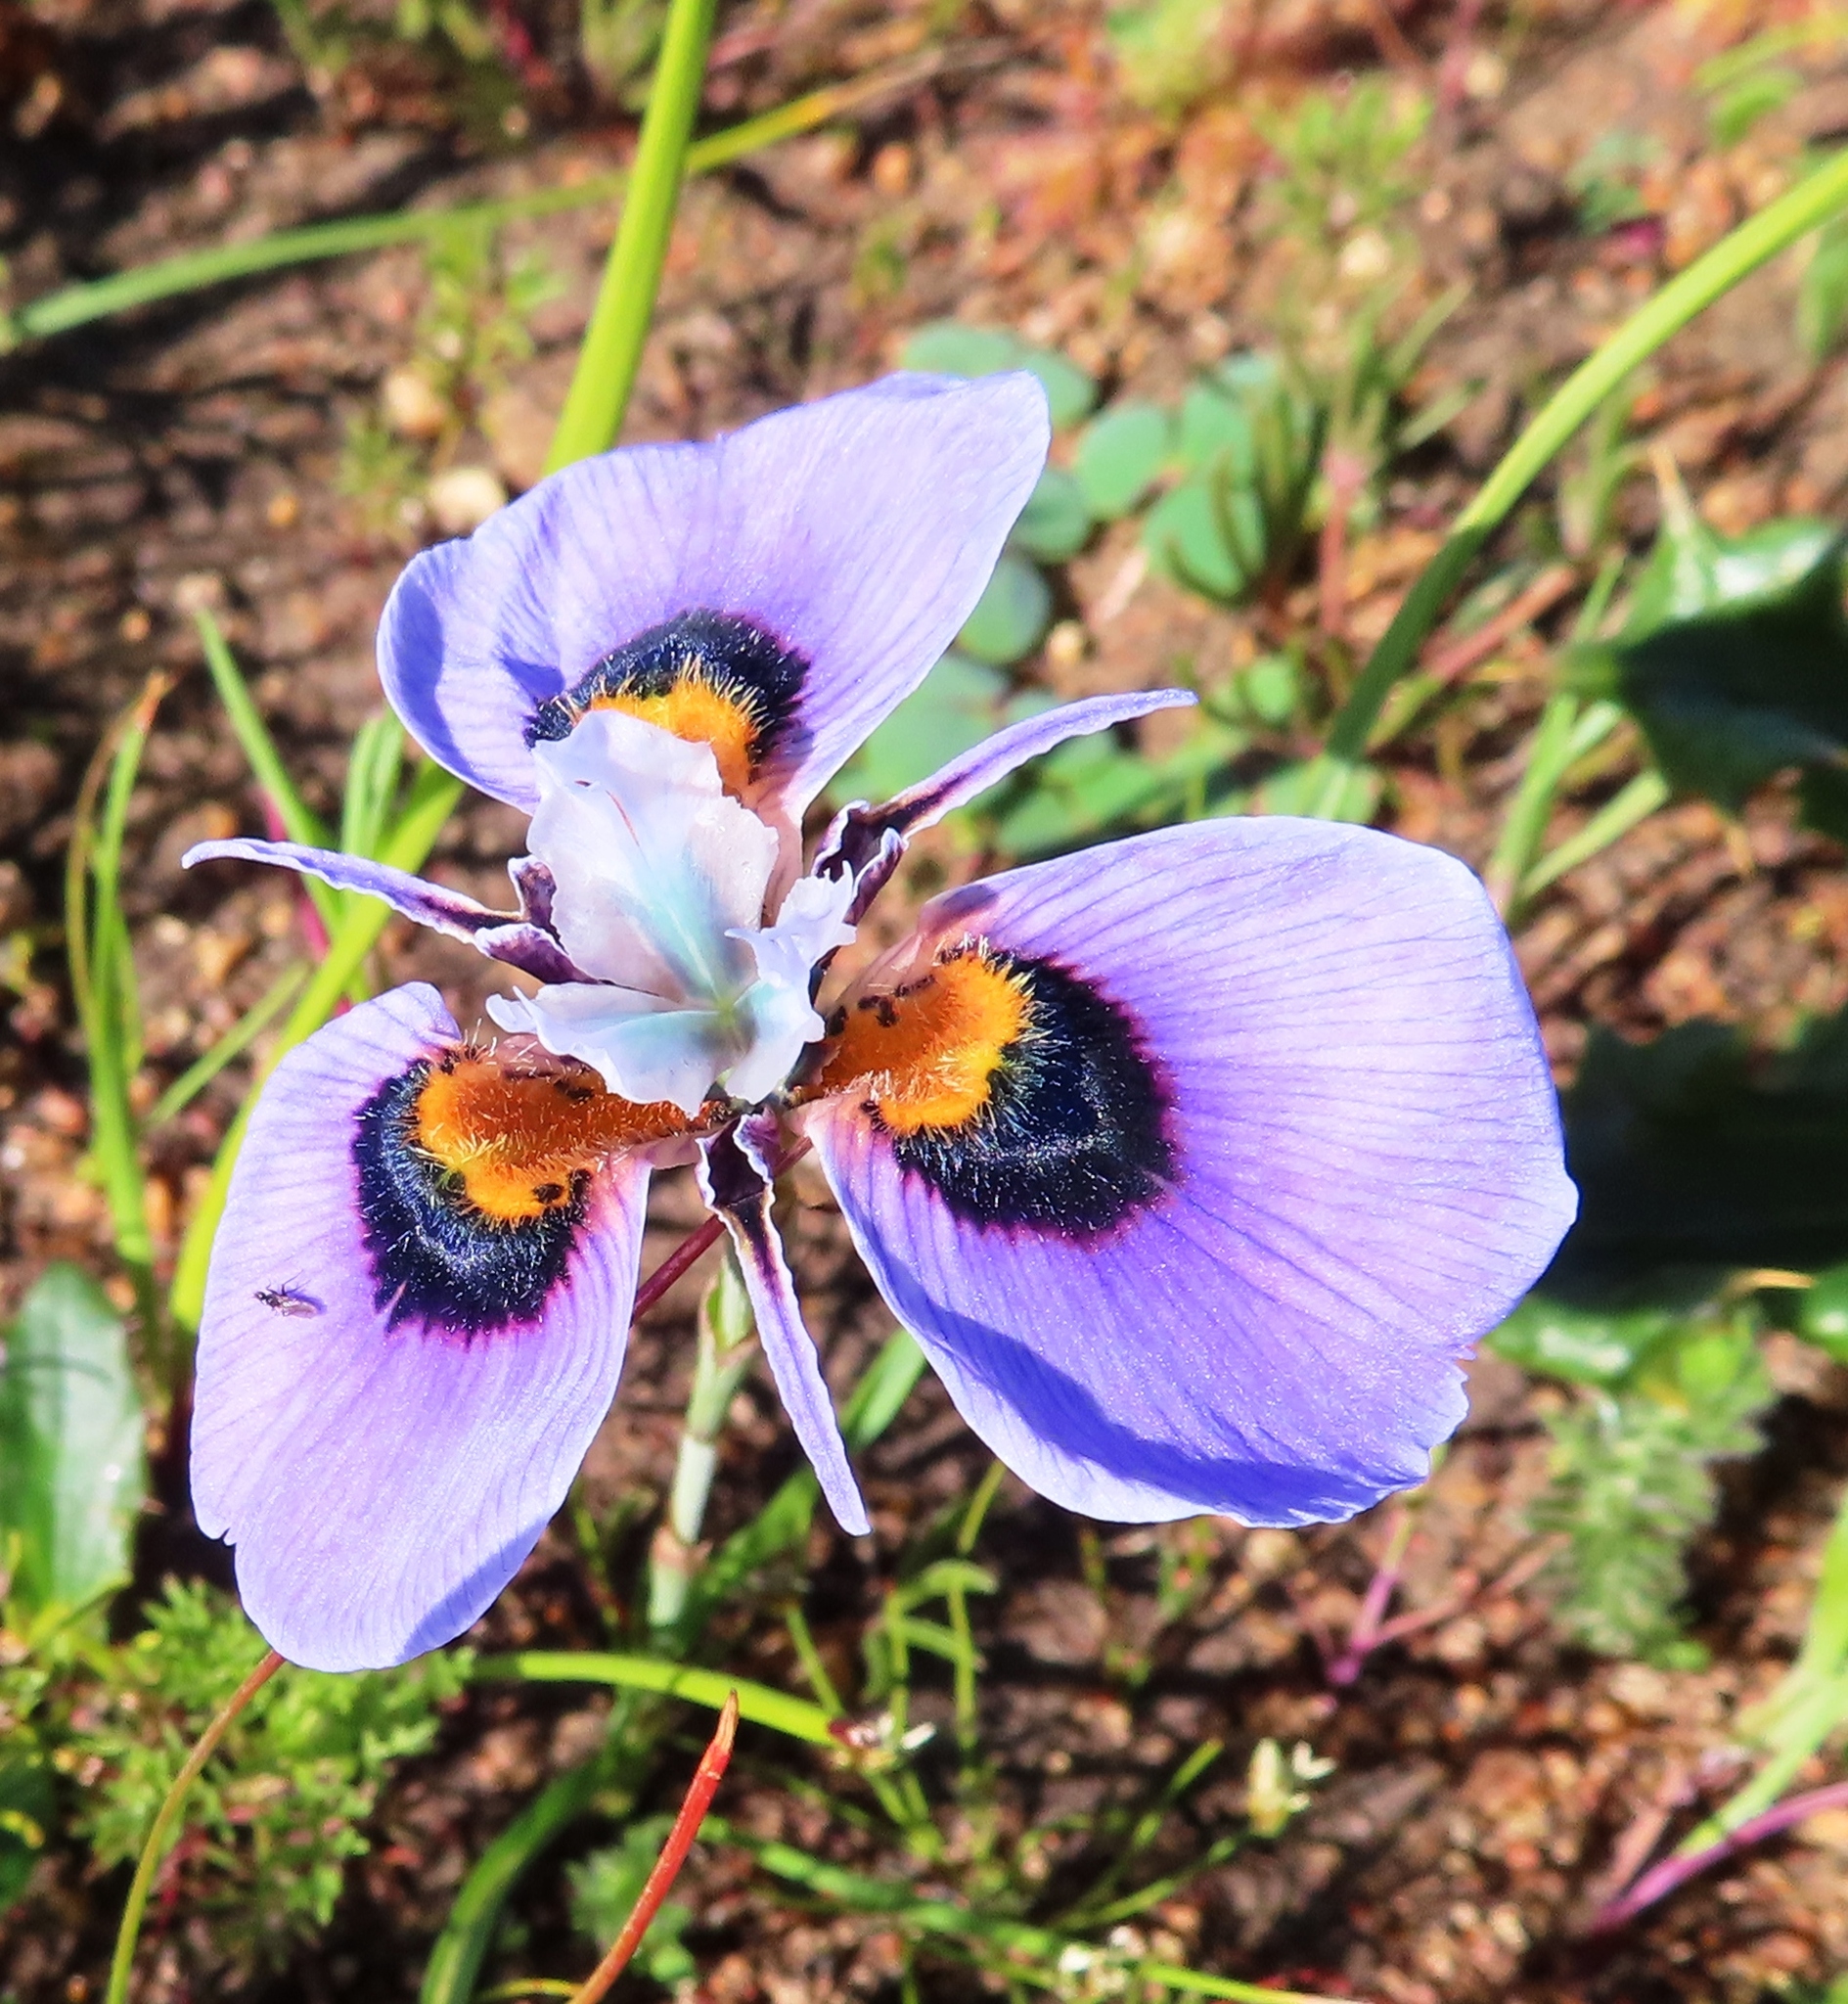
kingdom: Plantae
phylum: Tracheophyta
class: Liliopsida
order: Asparagales
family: Iridaceae
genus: Moraea
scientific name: Moraea villosa
